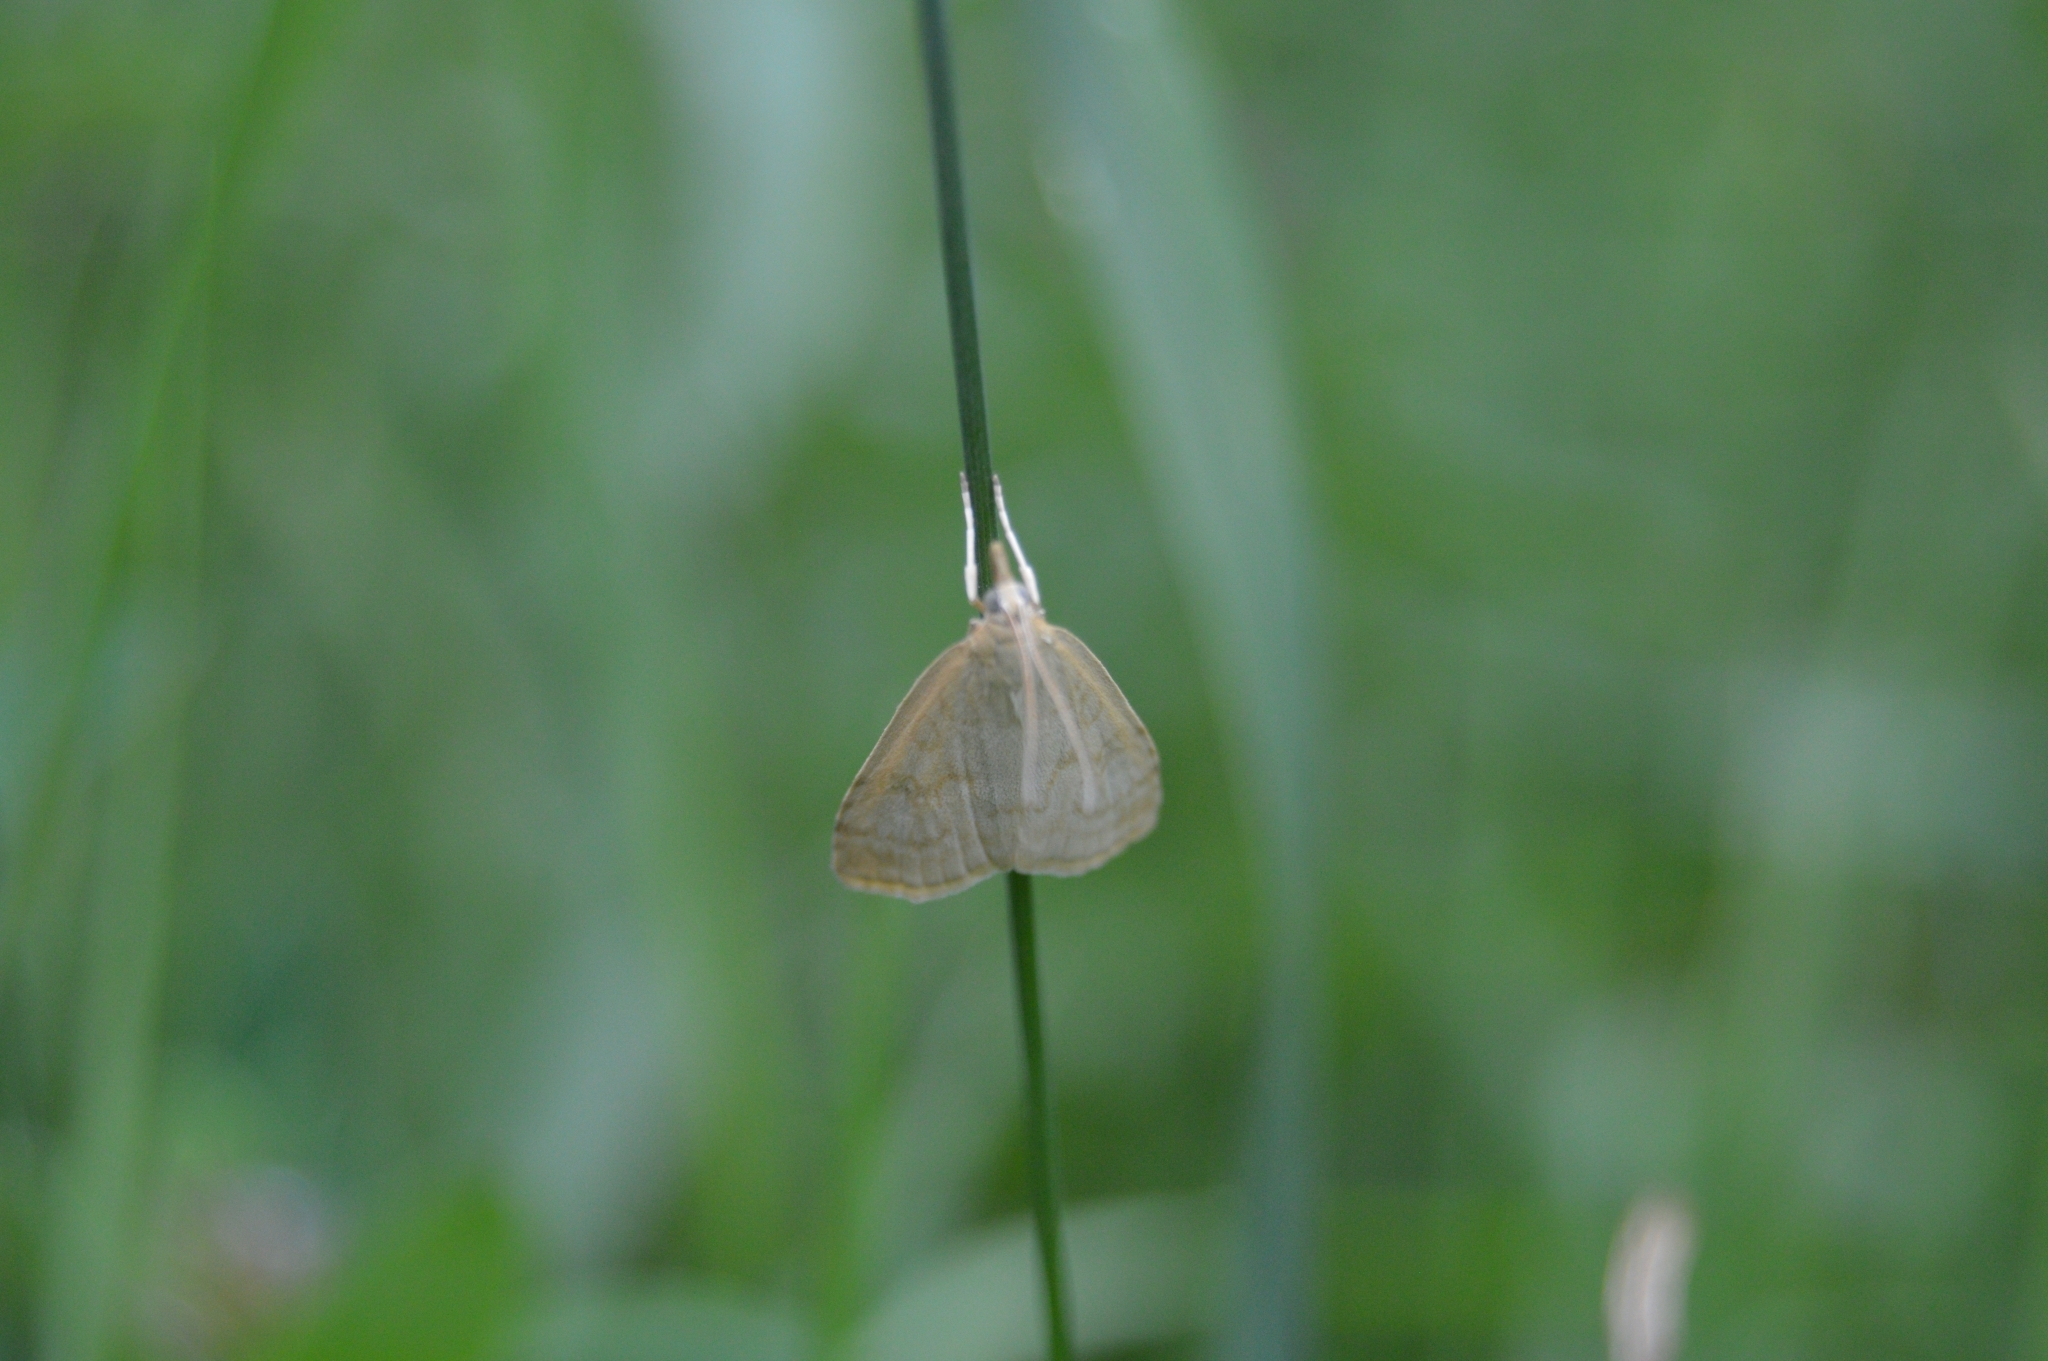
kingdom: Animalia
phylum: Arthropoda
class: Insecta
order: Lepidoptera
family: Crambidae
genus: Udea
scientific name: Udea lutealis
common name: Pale straw pearl
